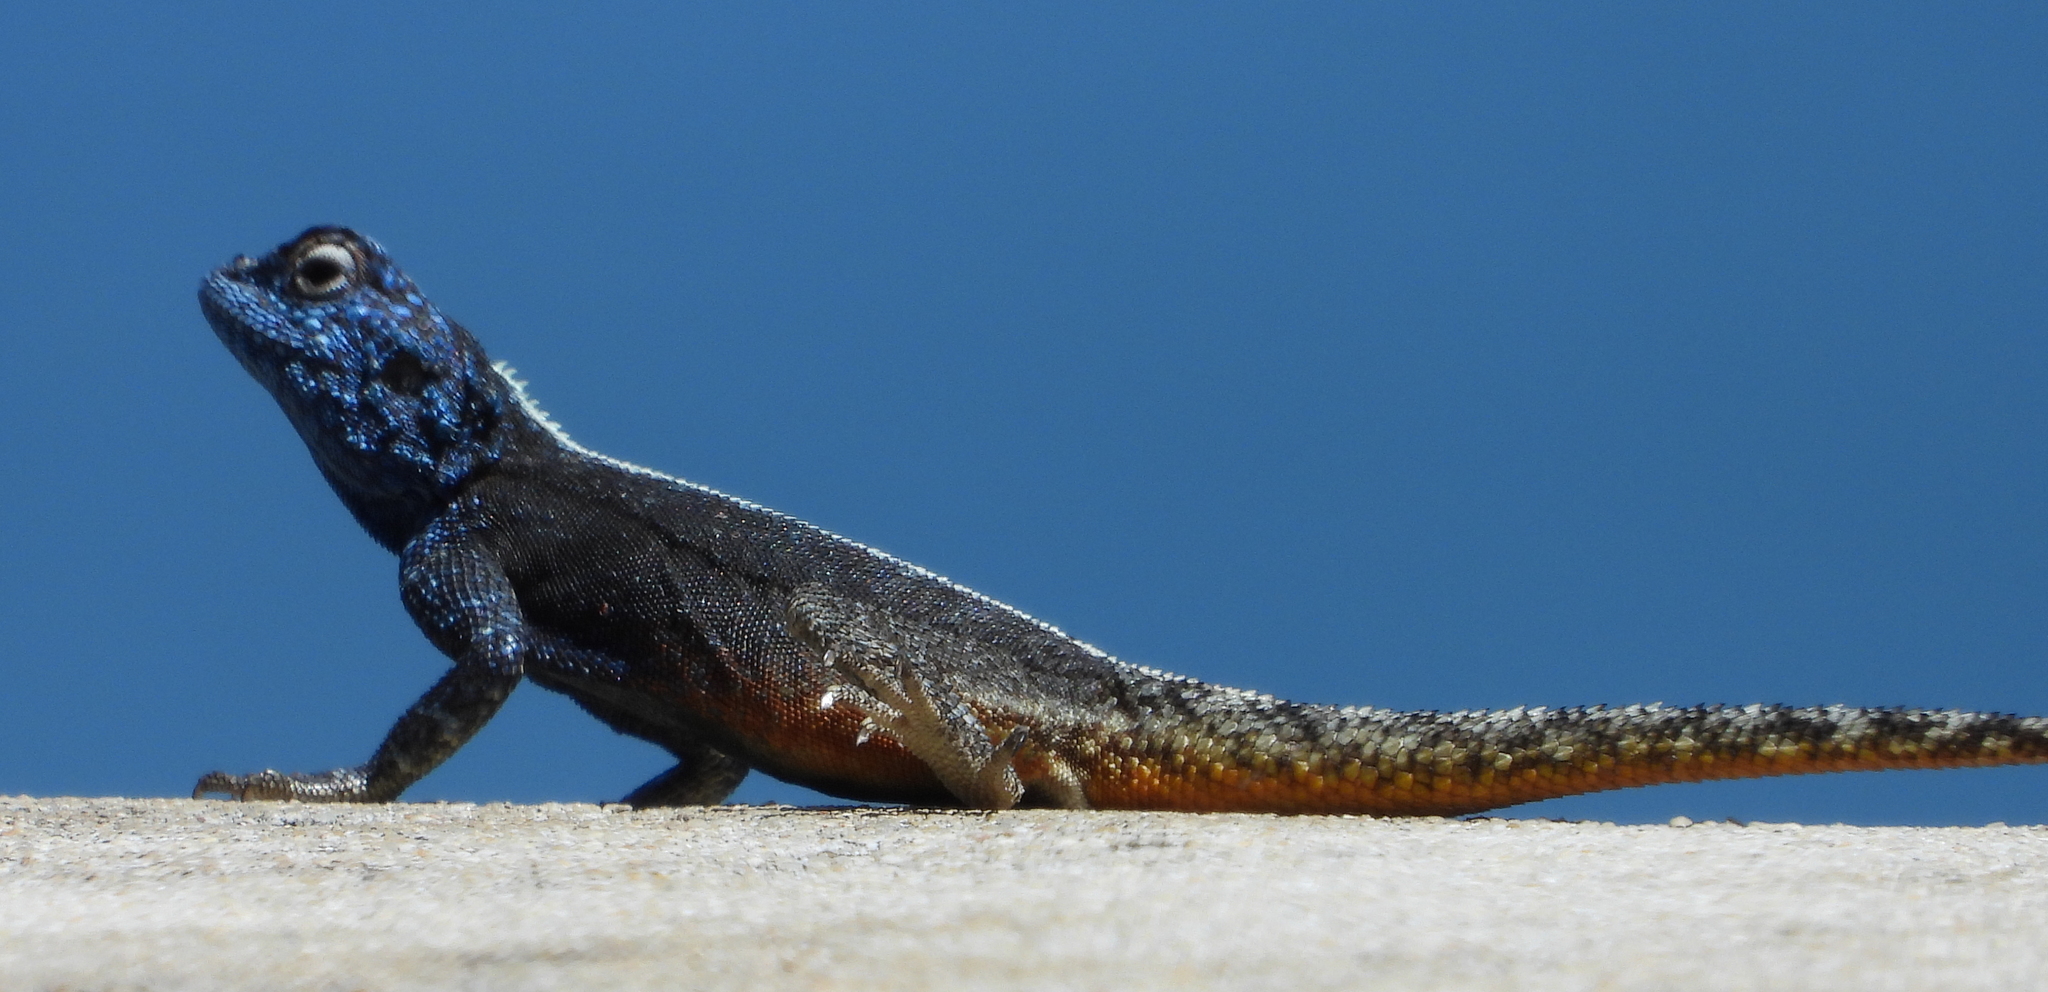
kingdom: Animalia
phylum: Chordata
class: Squamata
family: Agamidae
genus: Agama
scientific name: Agama atra
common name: Southern african rock agama
